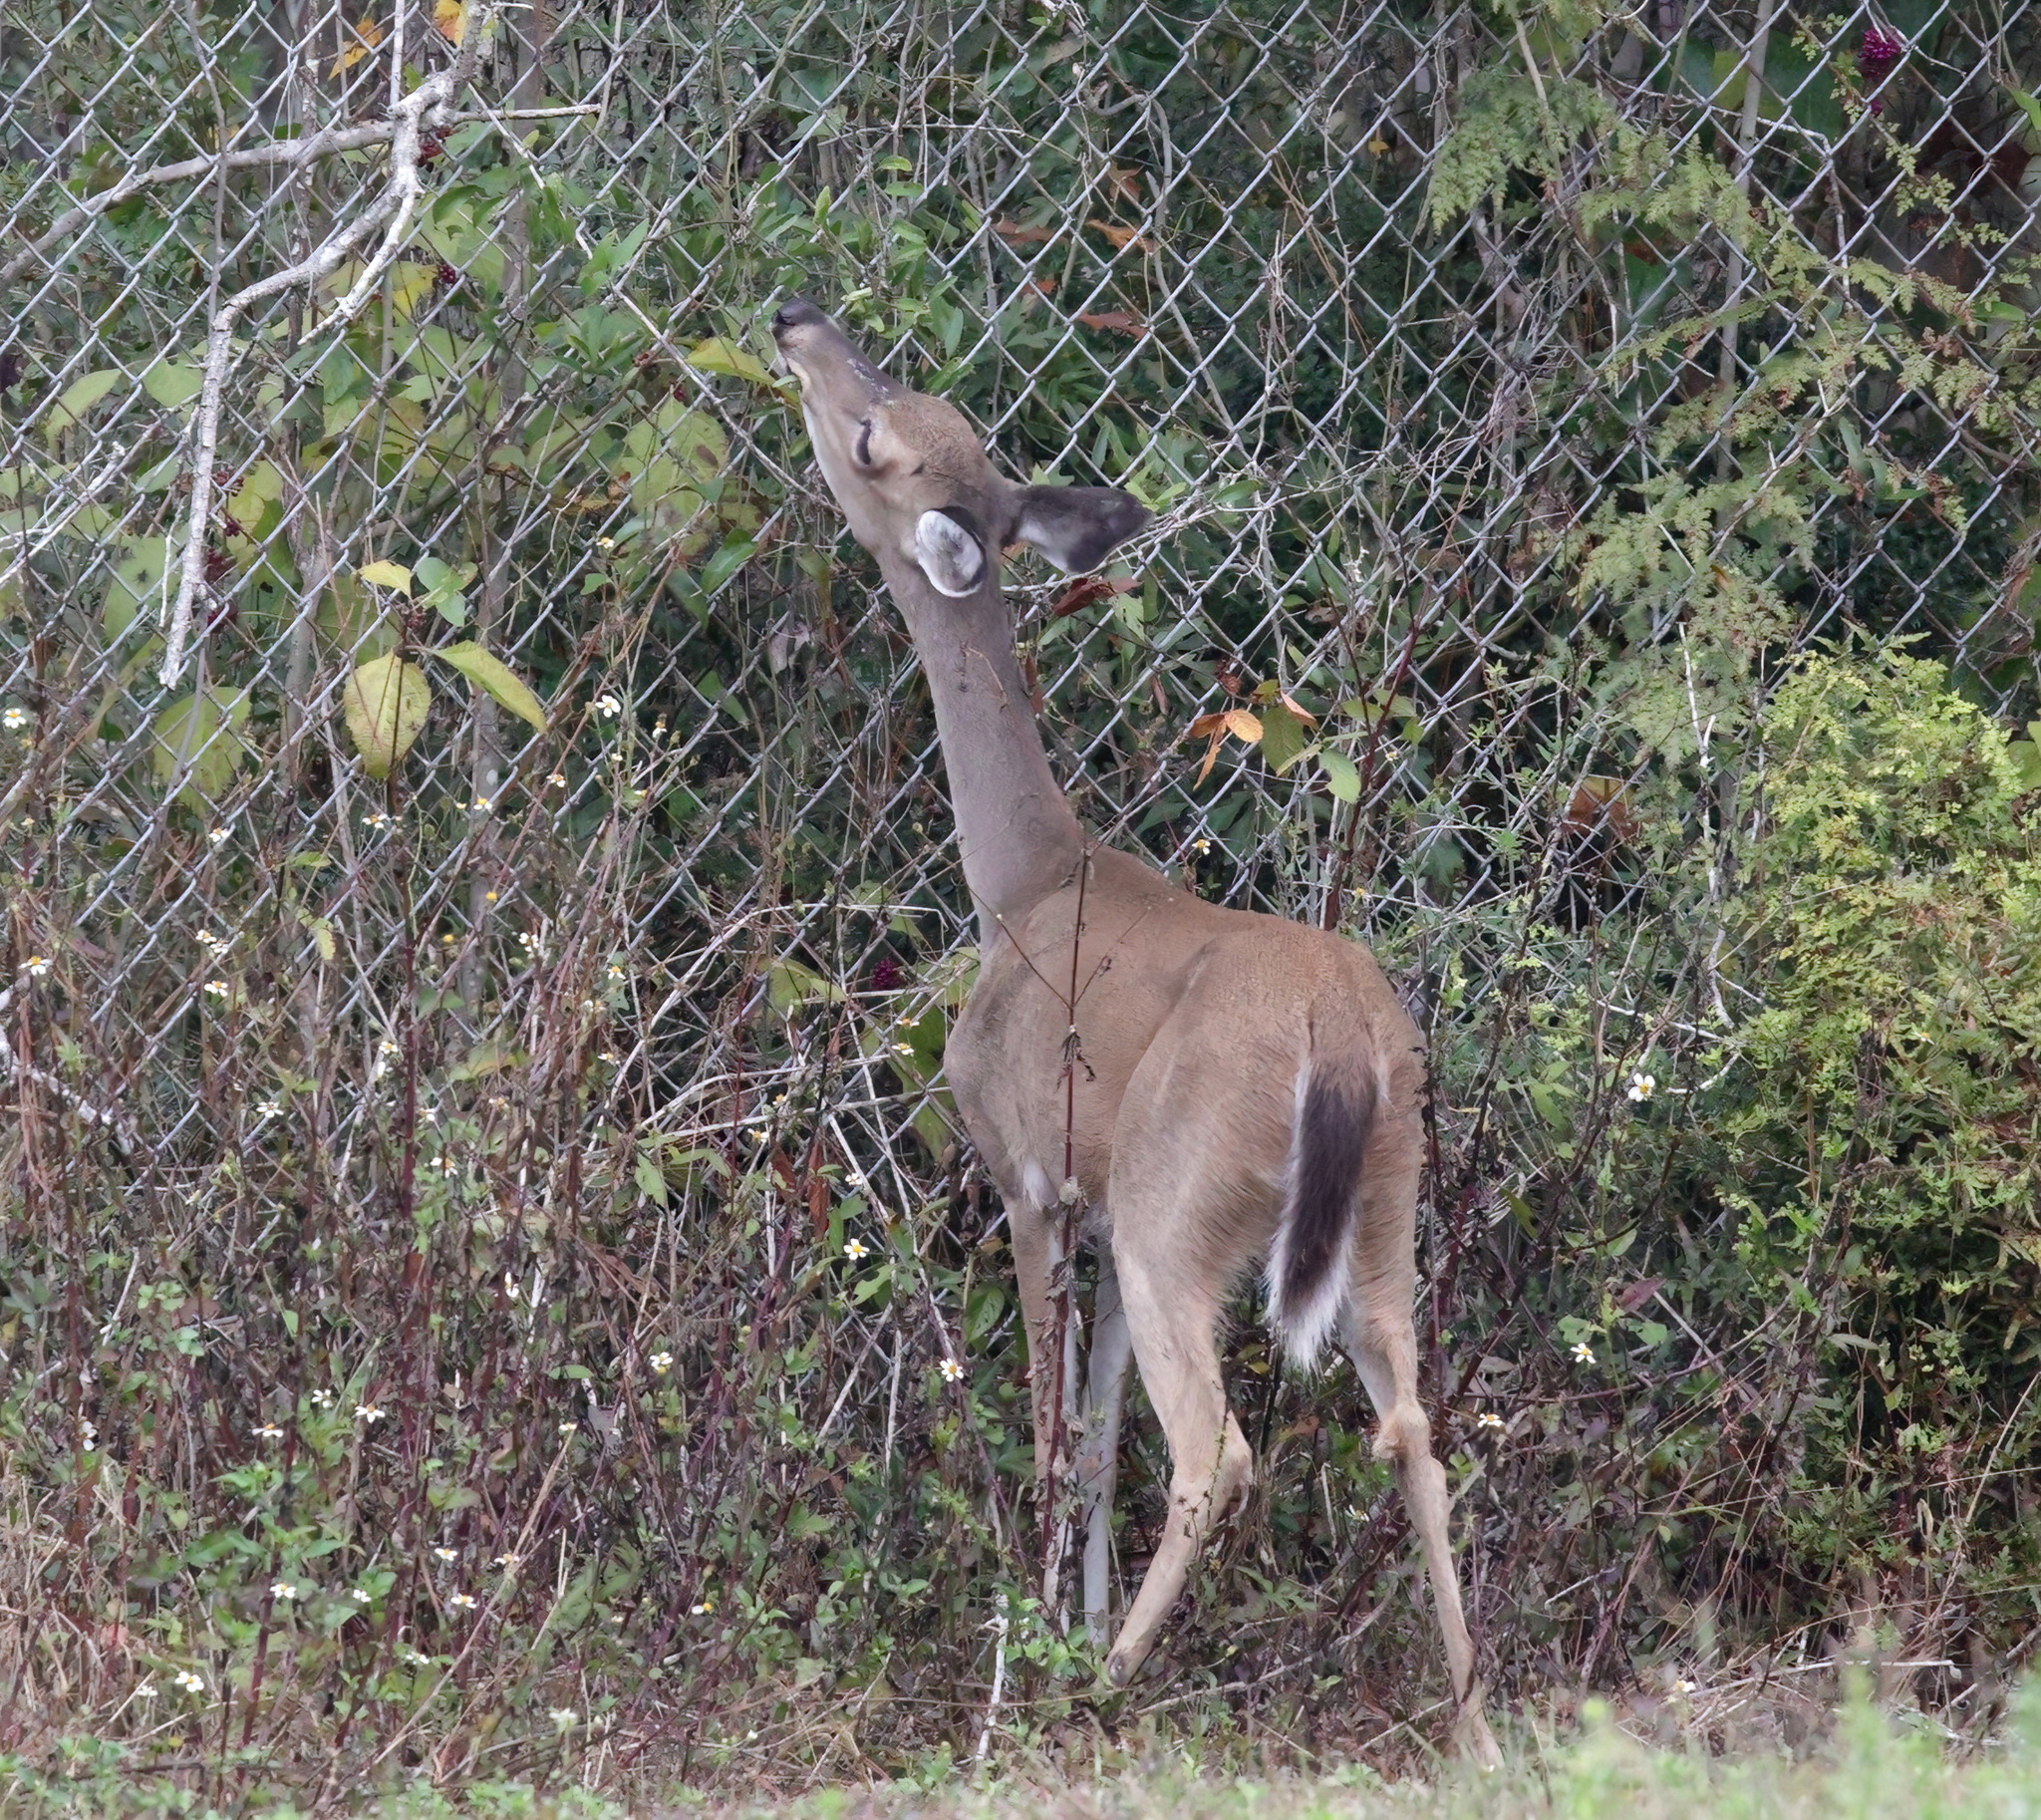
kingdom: Animalia
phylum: Chordata
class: Mammalia
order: Artiodactyla
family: Cervidae
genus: Odocoileus
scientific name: Odocoileus virginianus
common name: White-tailed deer
